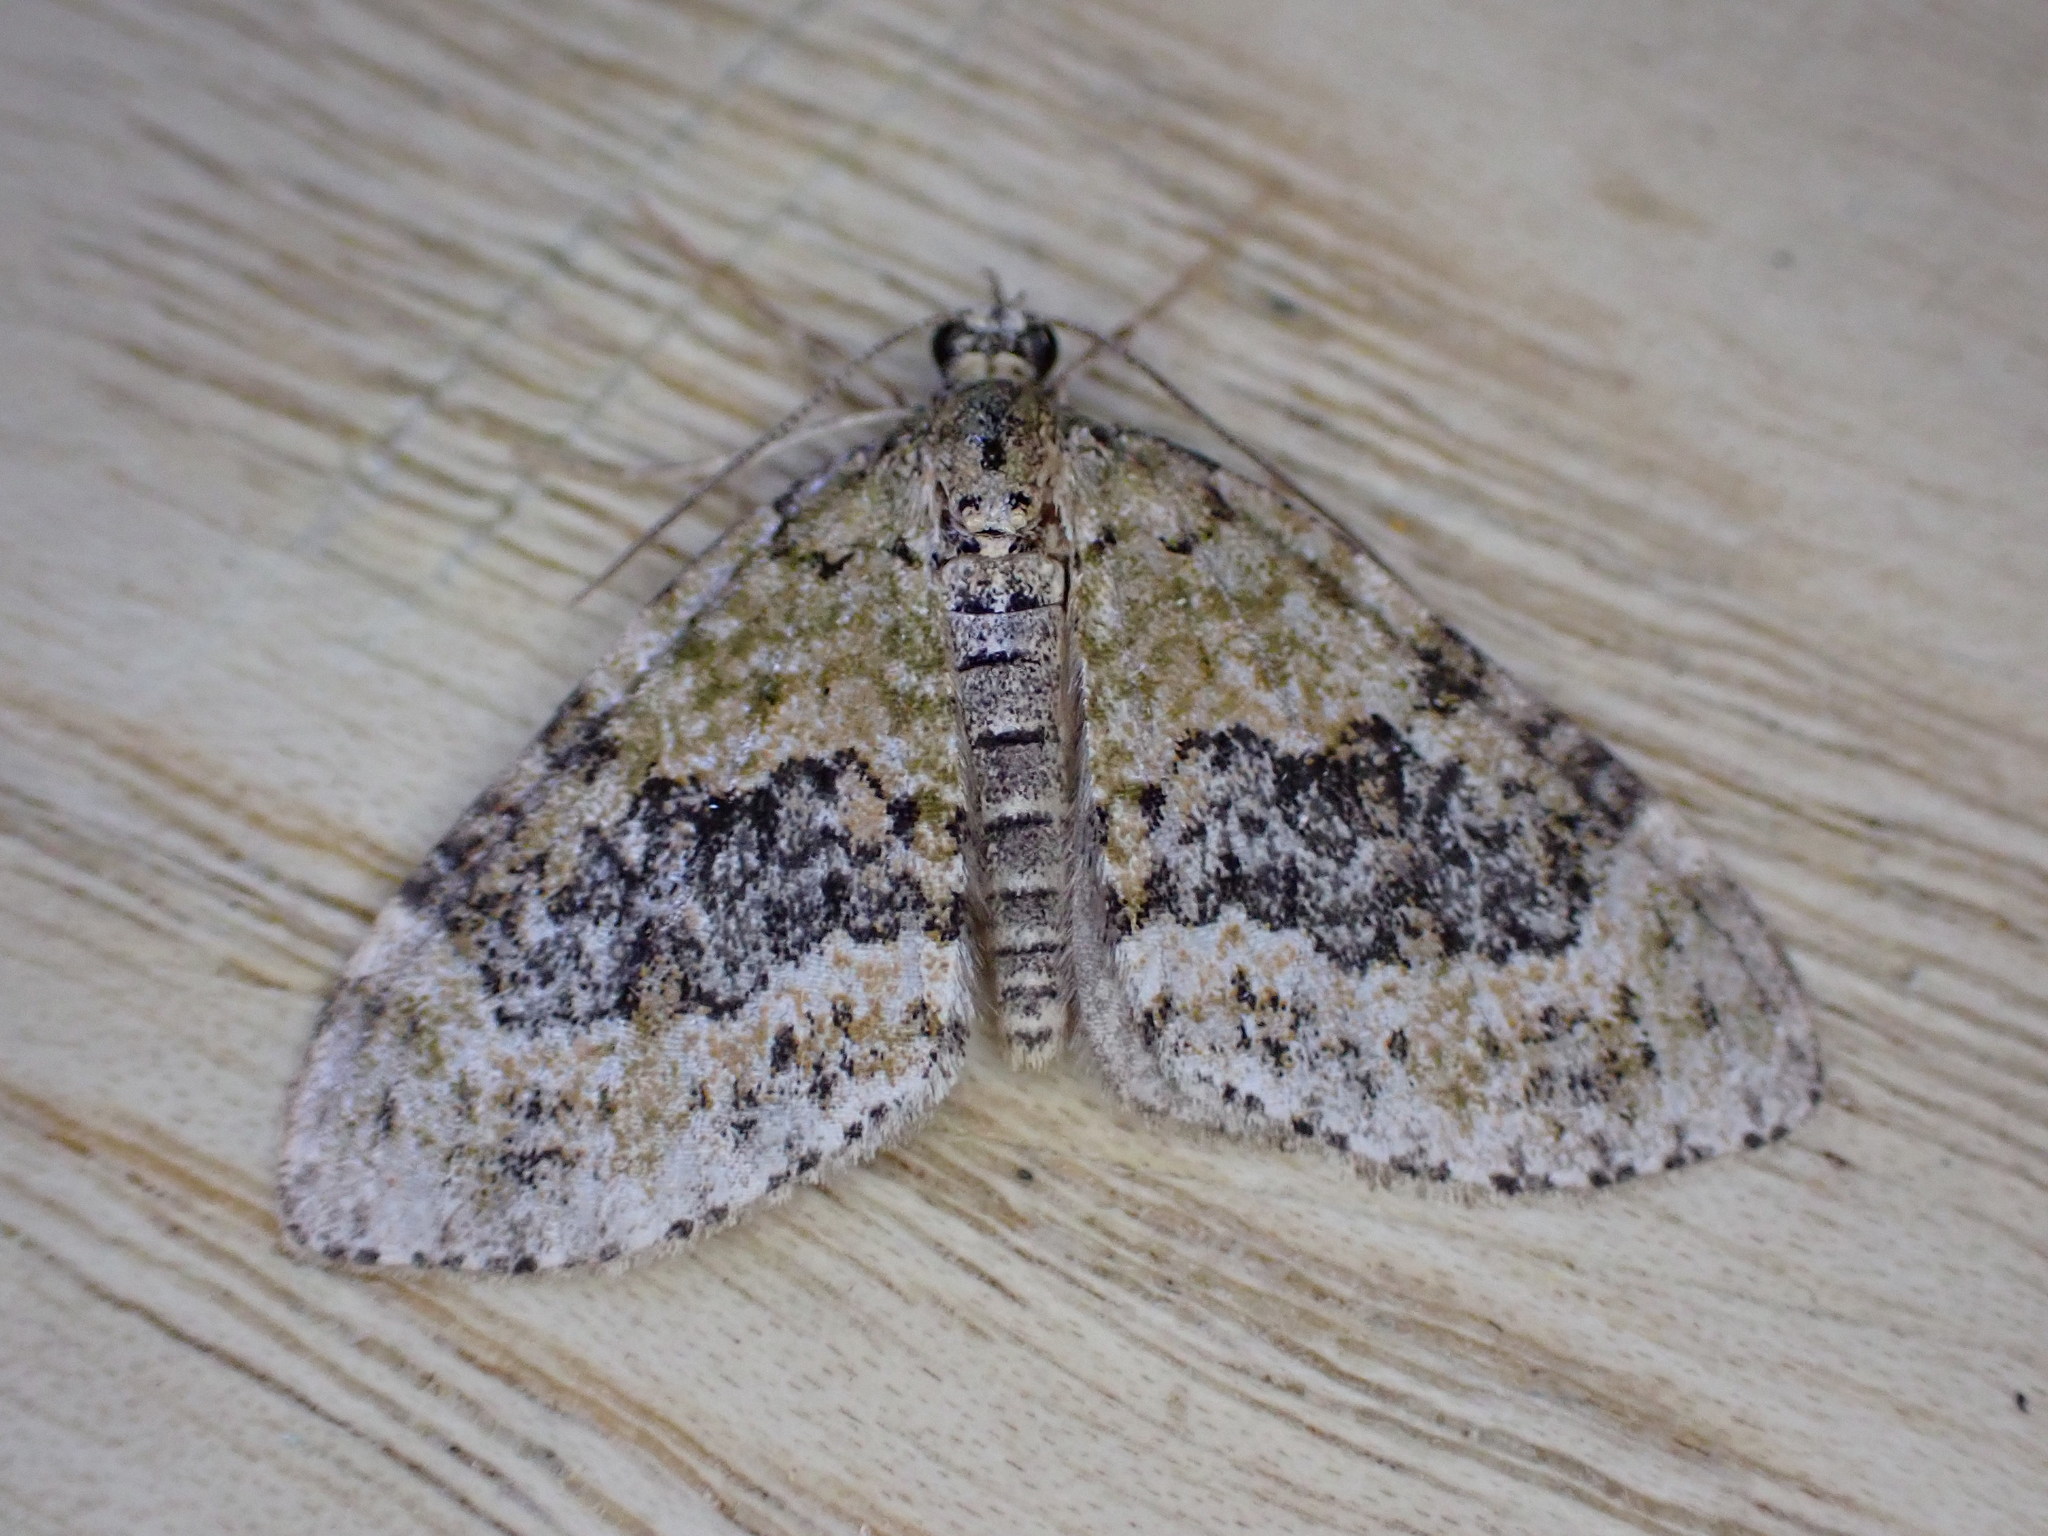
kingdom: Animalia
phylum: Arthropoda
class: Insecta
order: Lepidoptera
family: Geometridae
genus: Acasis
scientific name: Acasis viretata
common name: Yellow-barred brindle
